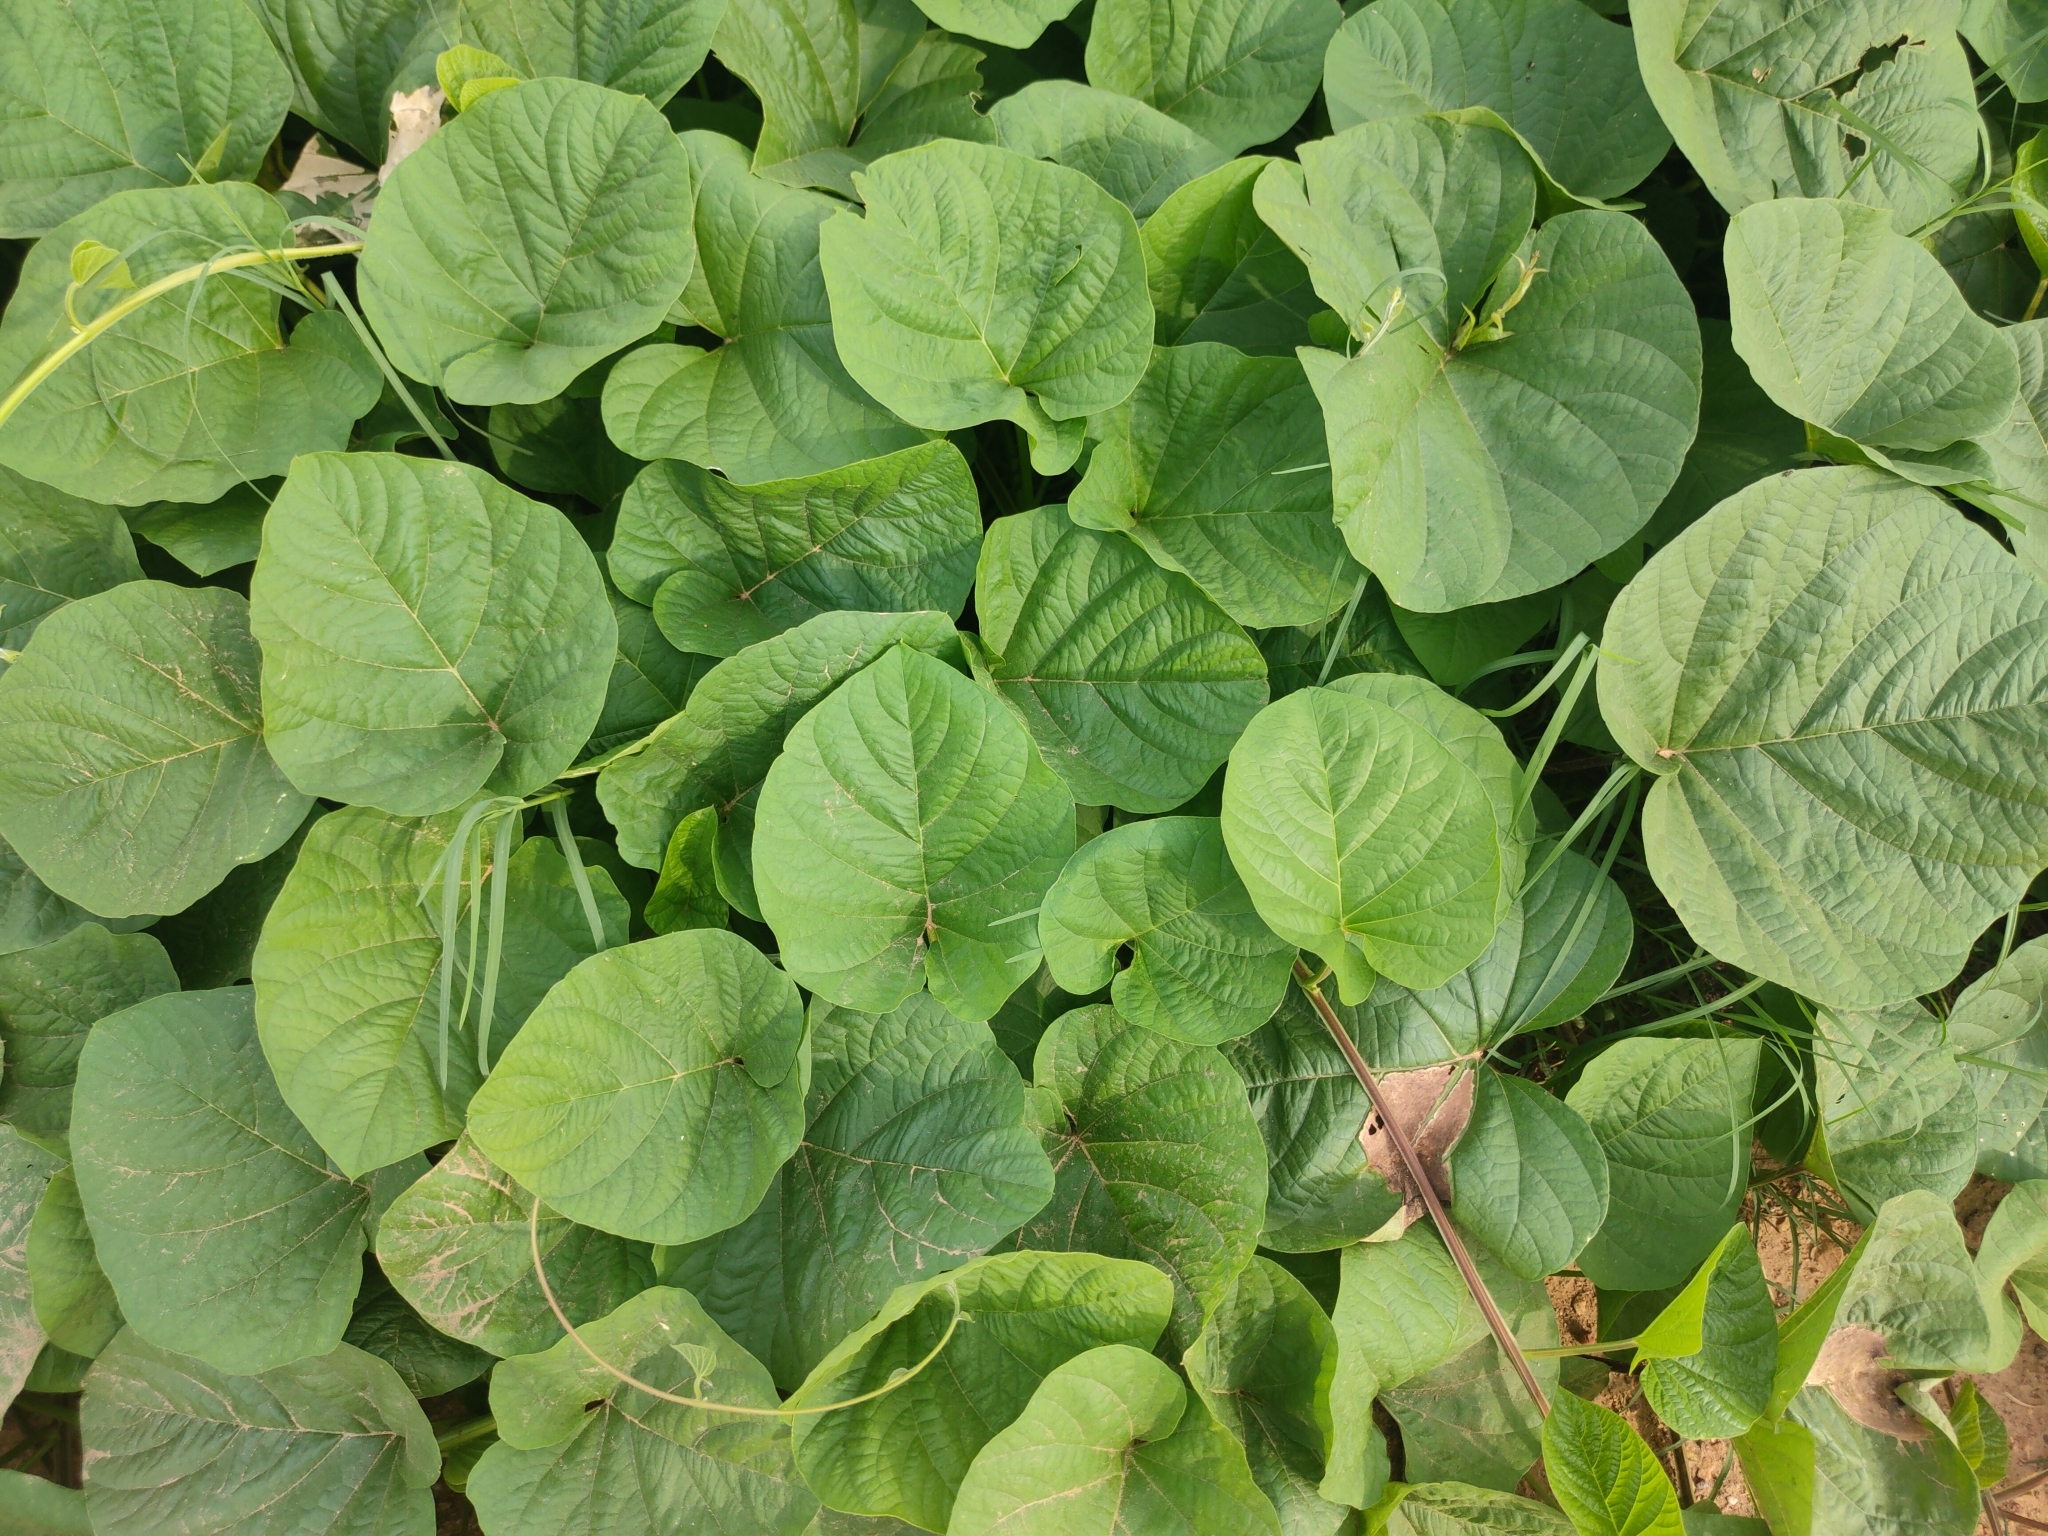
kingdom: Plantae
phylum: Tracheophyta
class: Magnoliopsida
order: Solanales
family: Convolvulaceae
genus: Operculina
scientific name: Operculina turpethum
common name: Transparent wood-rose
